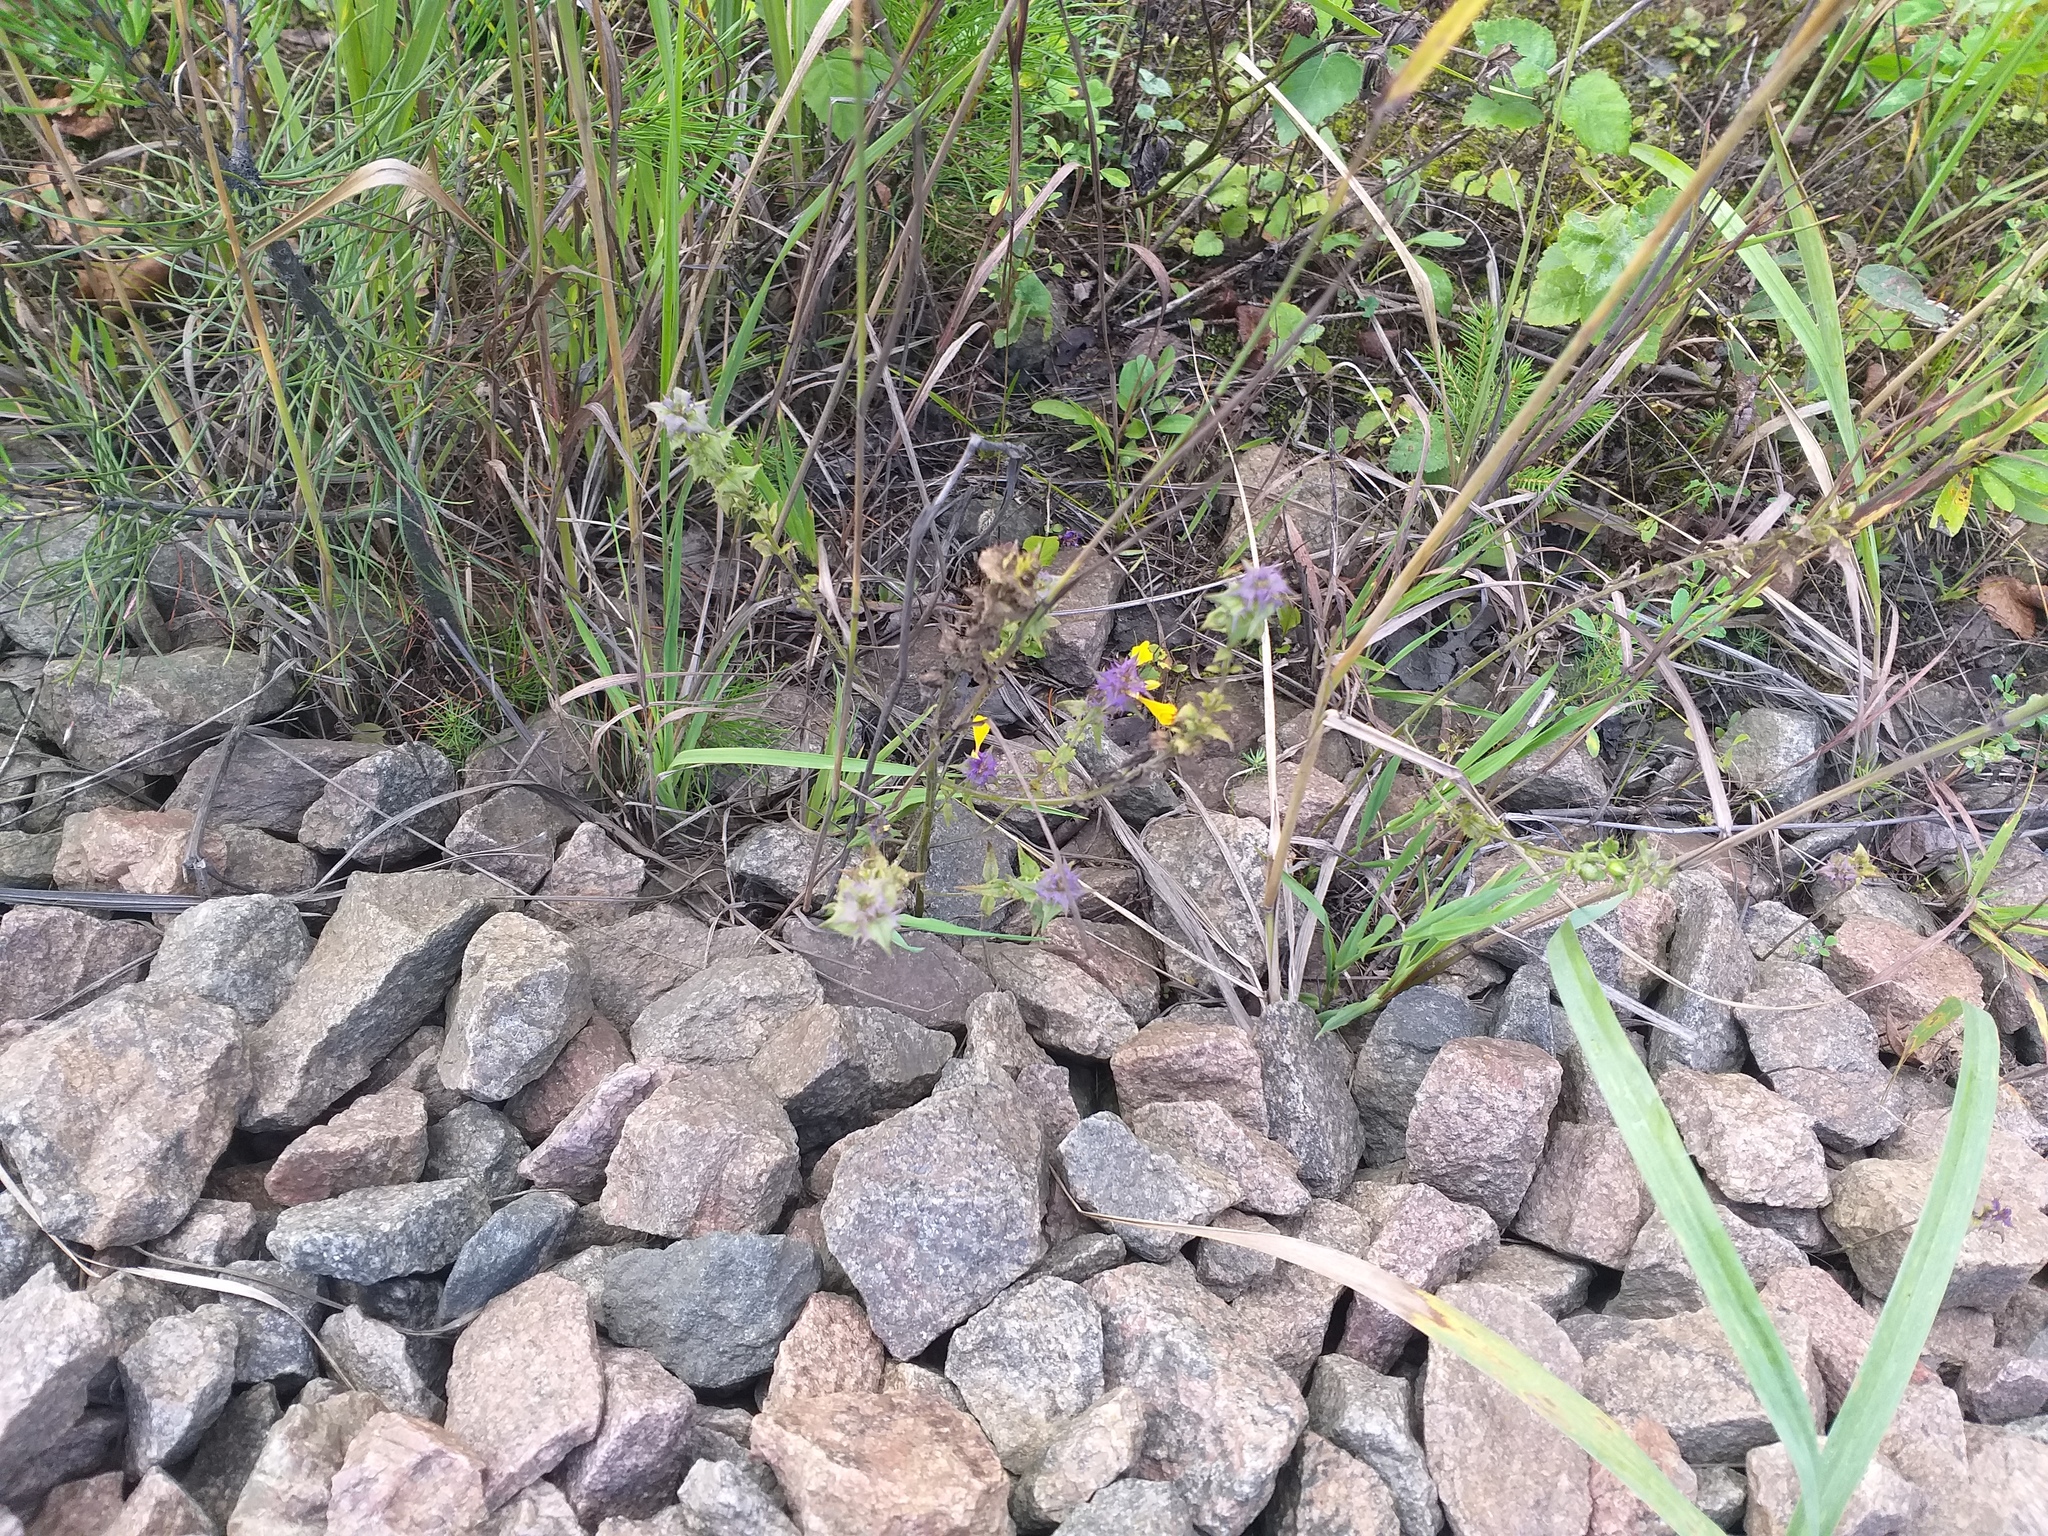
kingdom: Plantae
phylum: Tracheophyta
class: Magnoliopsida
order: Lamiales
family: Orobanchaceae
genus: Melampyrum
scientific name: Melampyrum nemorosum
